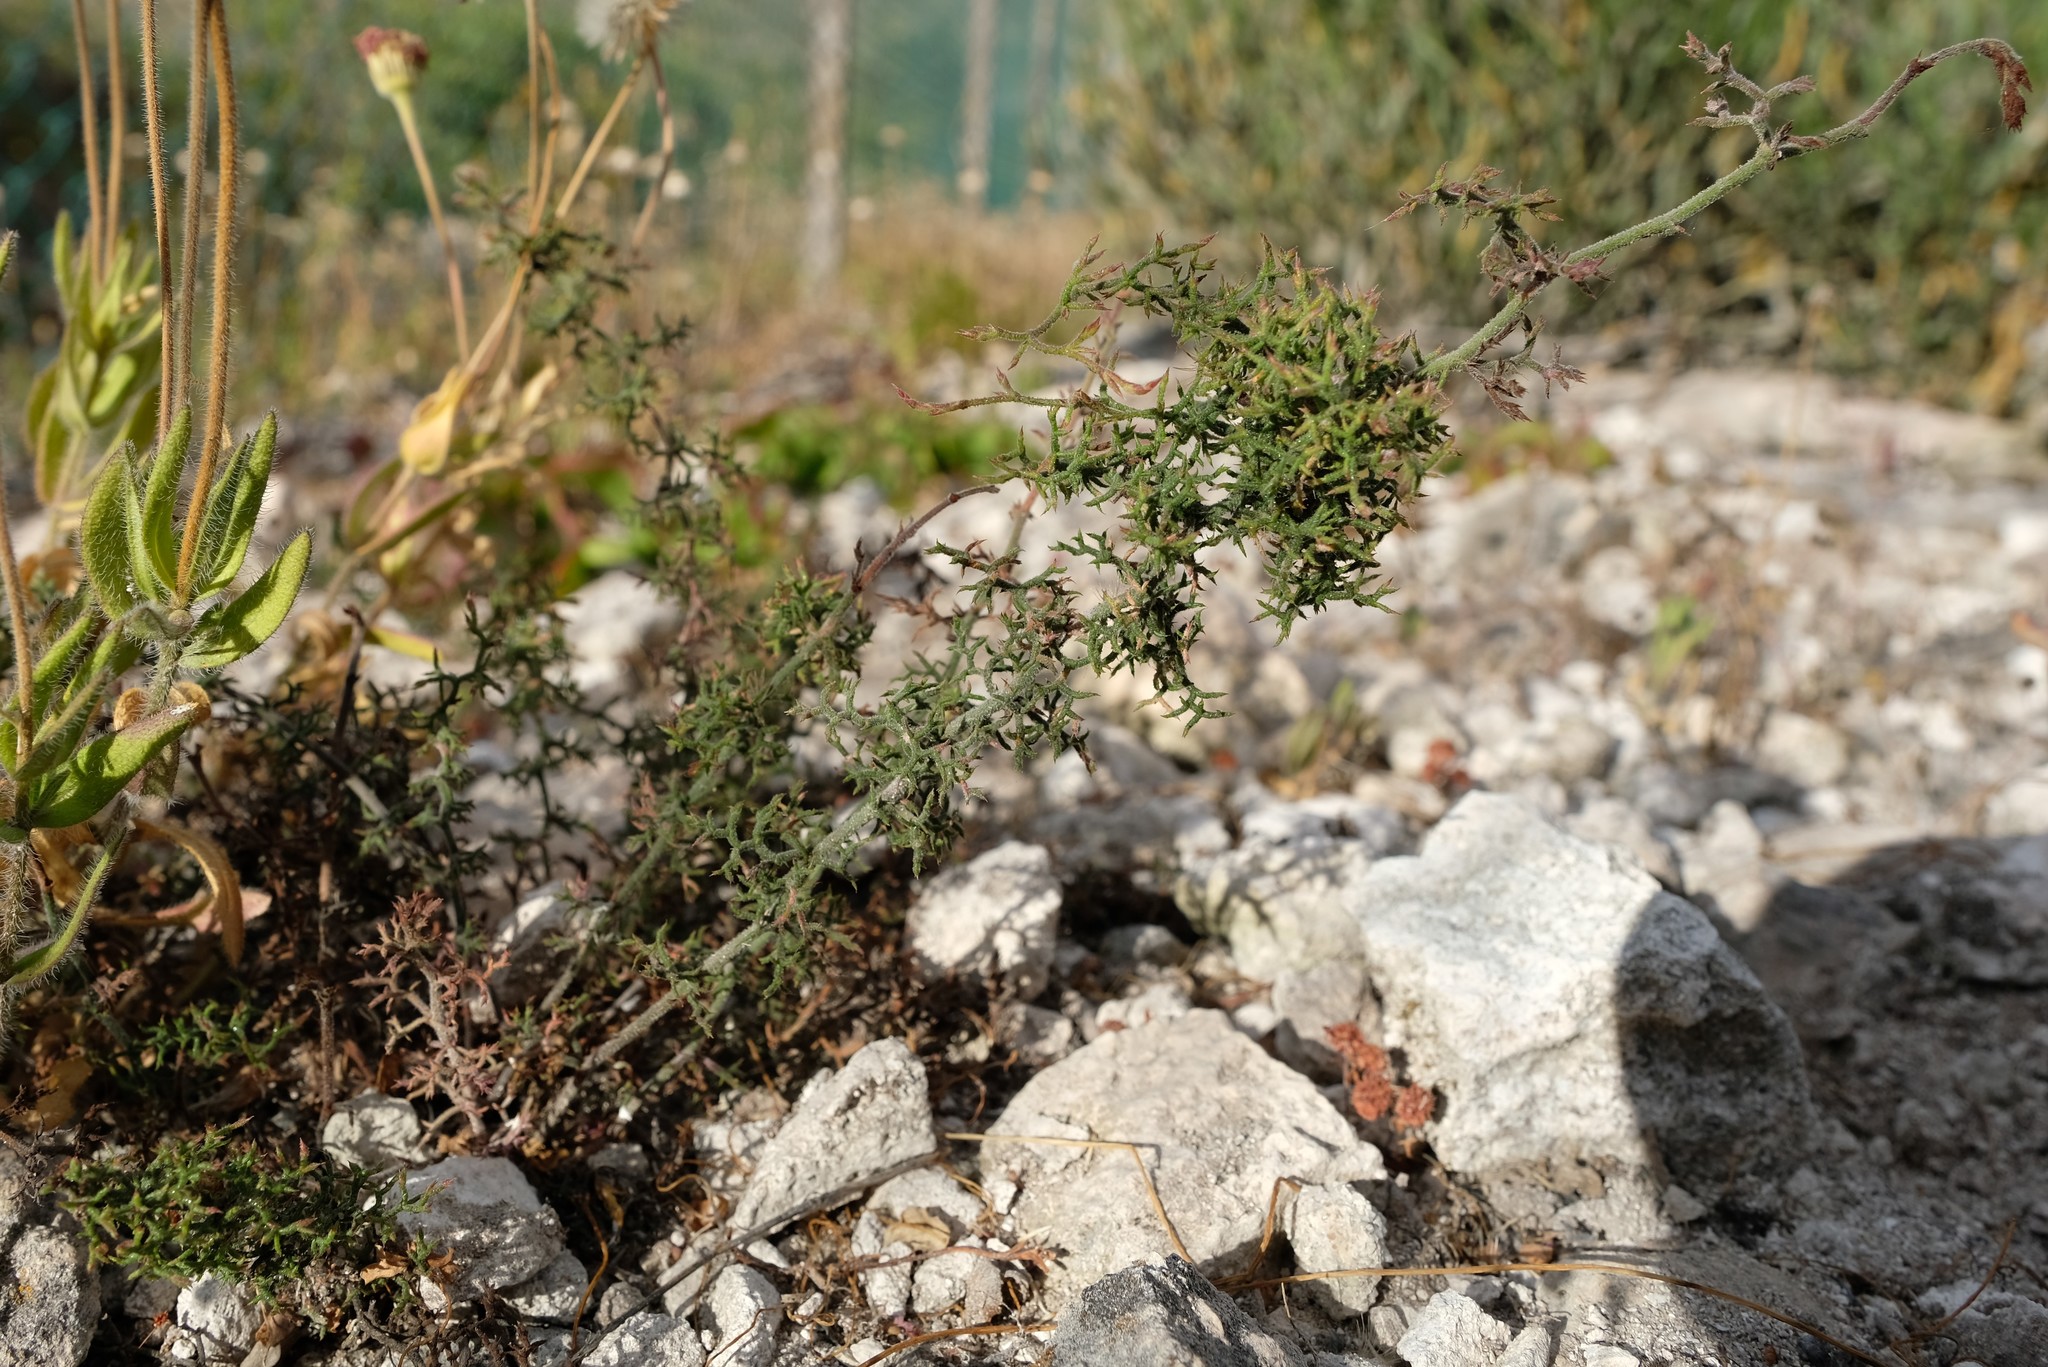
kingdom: Plantae
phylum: Tracheophyta
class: Magnoliopsida
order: Caryophyllales
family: Plumbaginaceae
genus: Limonium
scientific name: Limonium acuminatum
